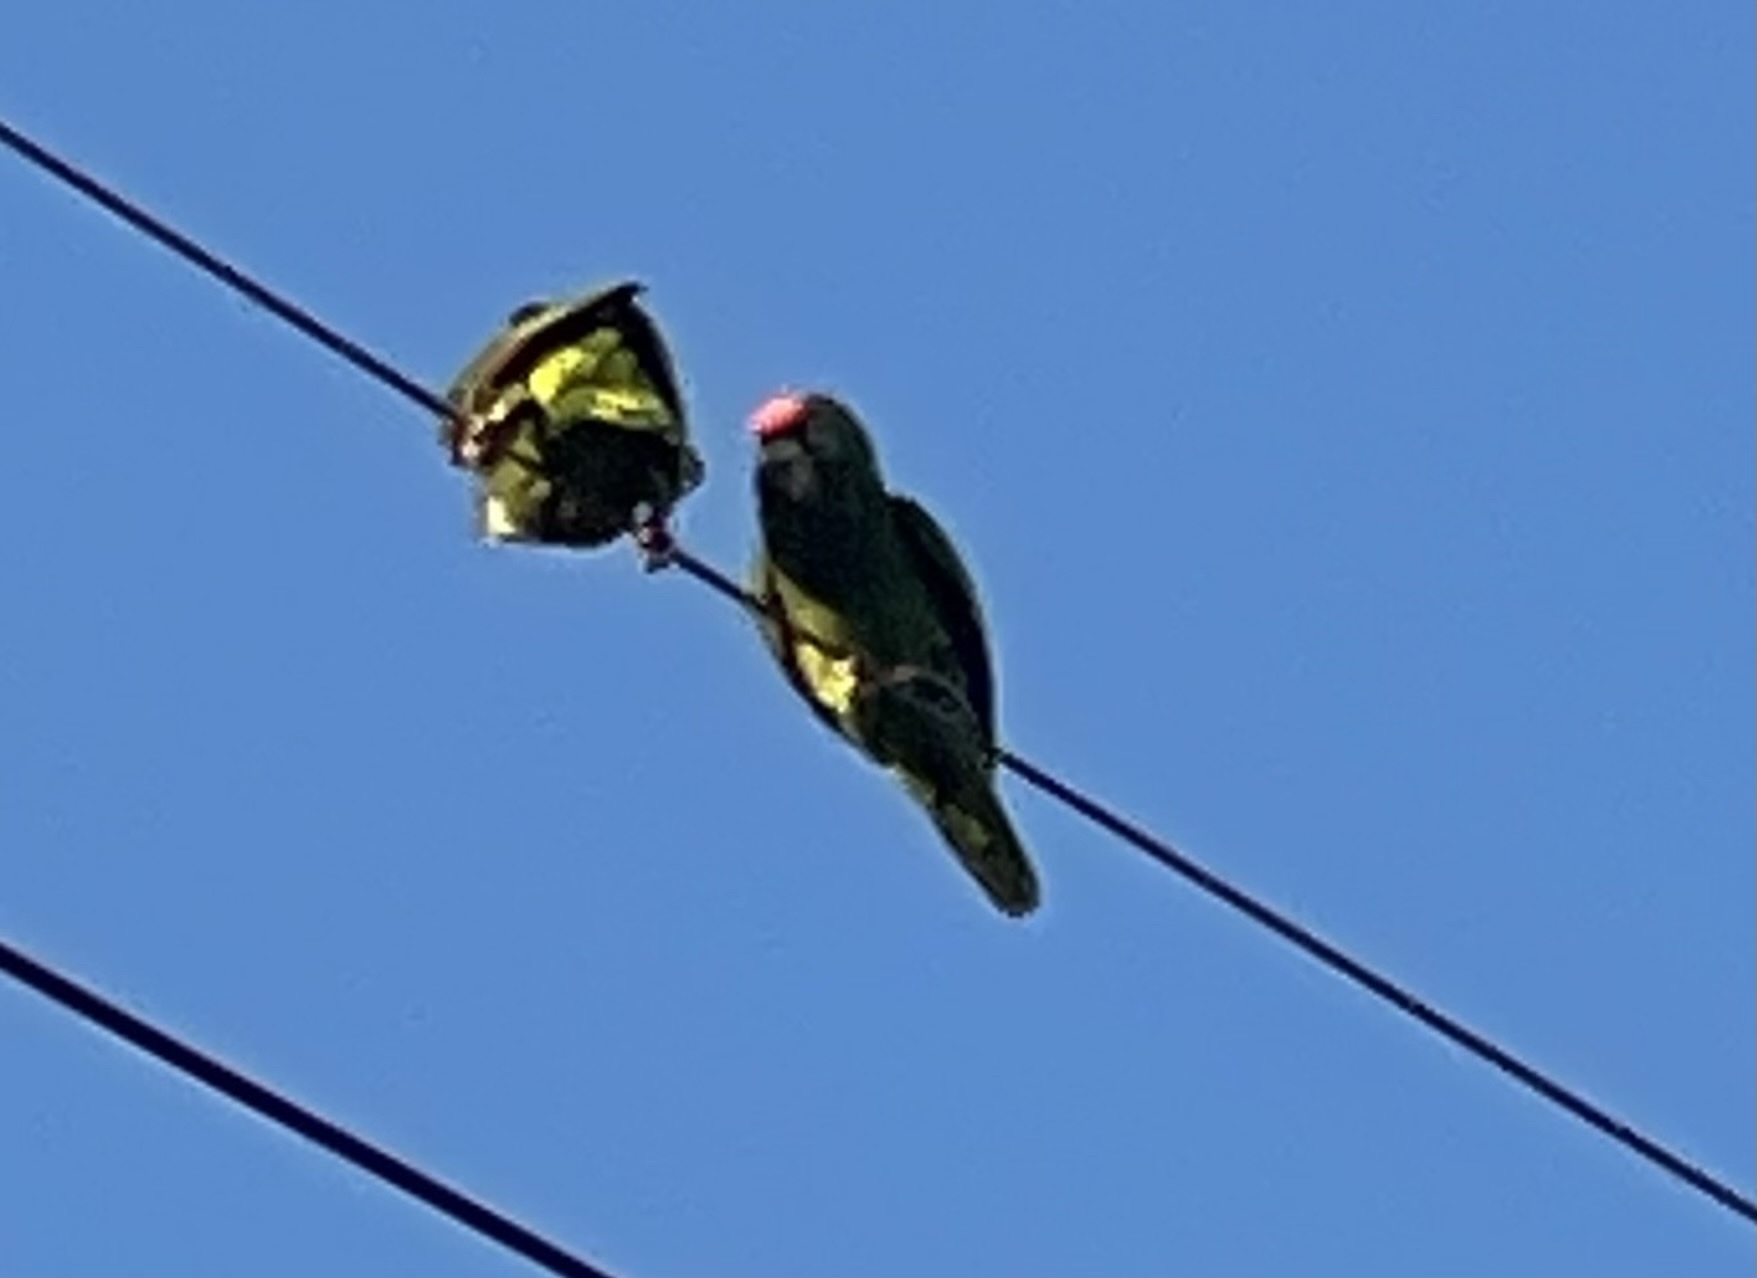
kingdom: Animalia
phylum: Chordata
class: Aves
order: Psittaciformes
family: Psittacidae
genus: Amazona
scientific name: Amazona viridigenalis
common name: Red-crowned amazon
